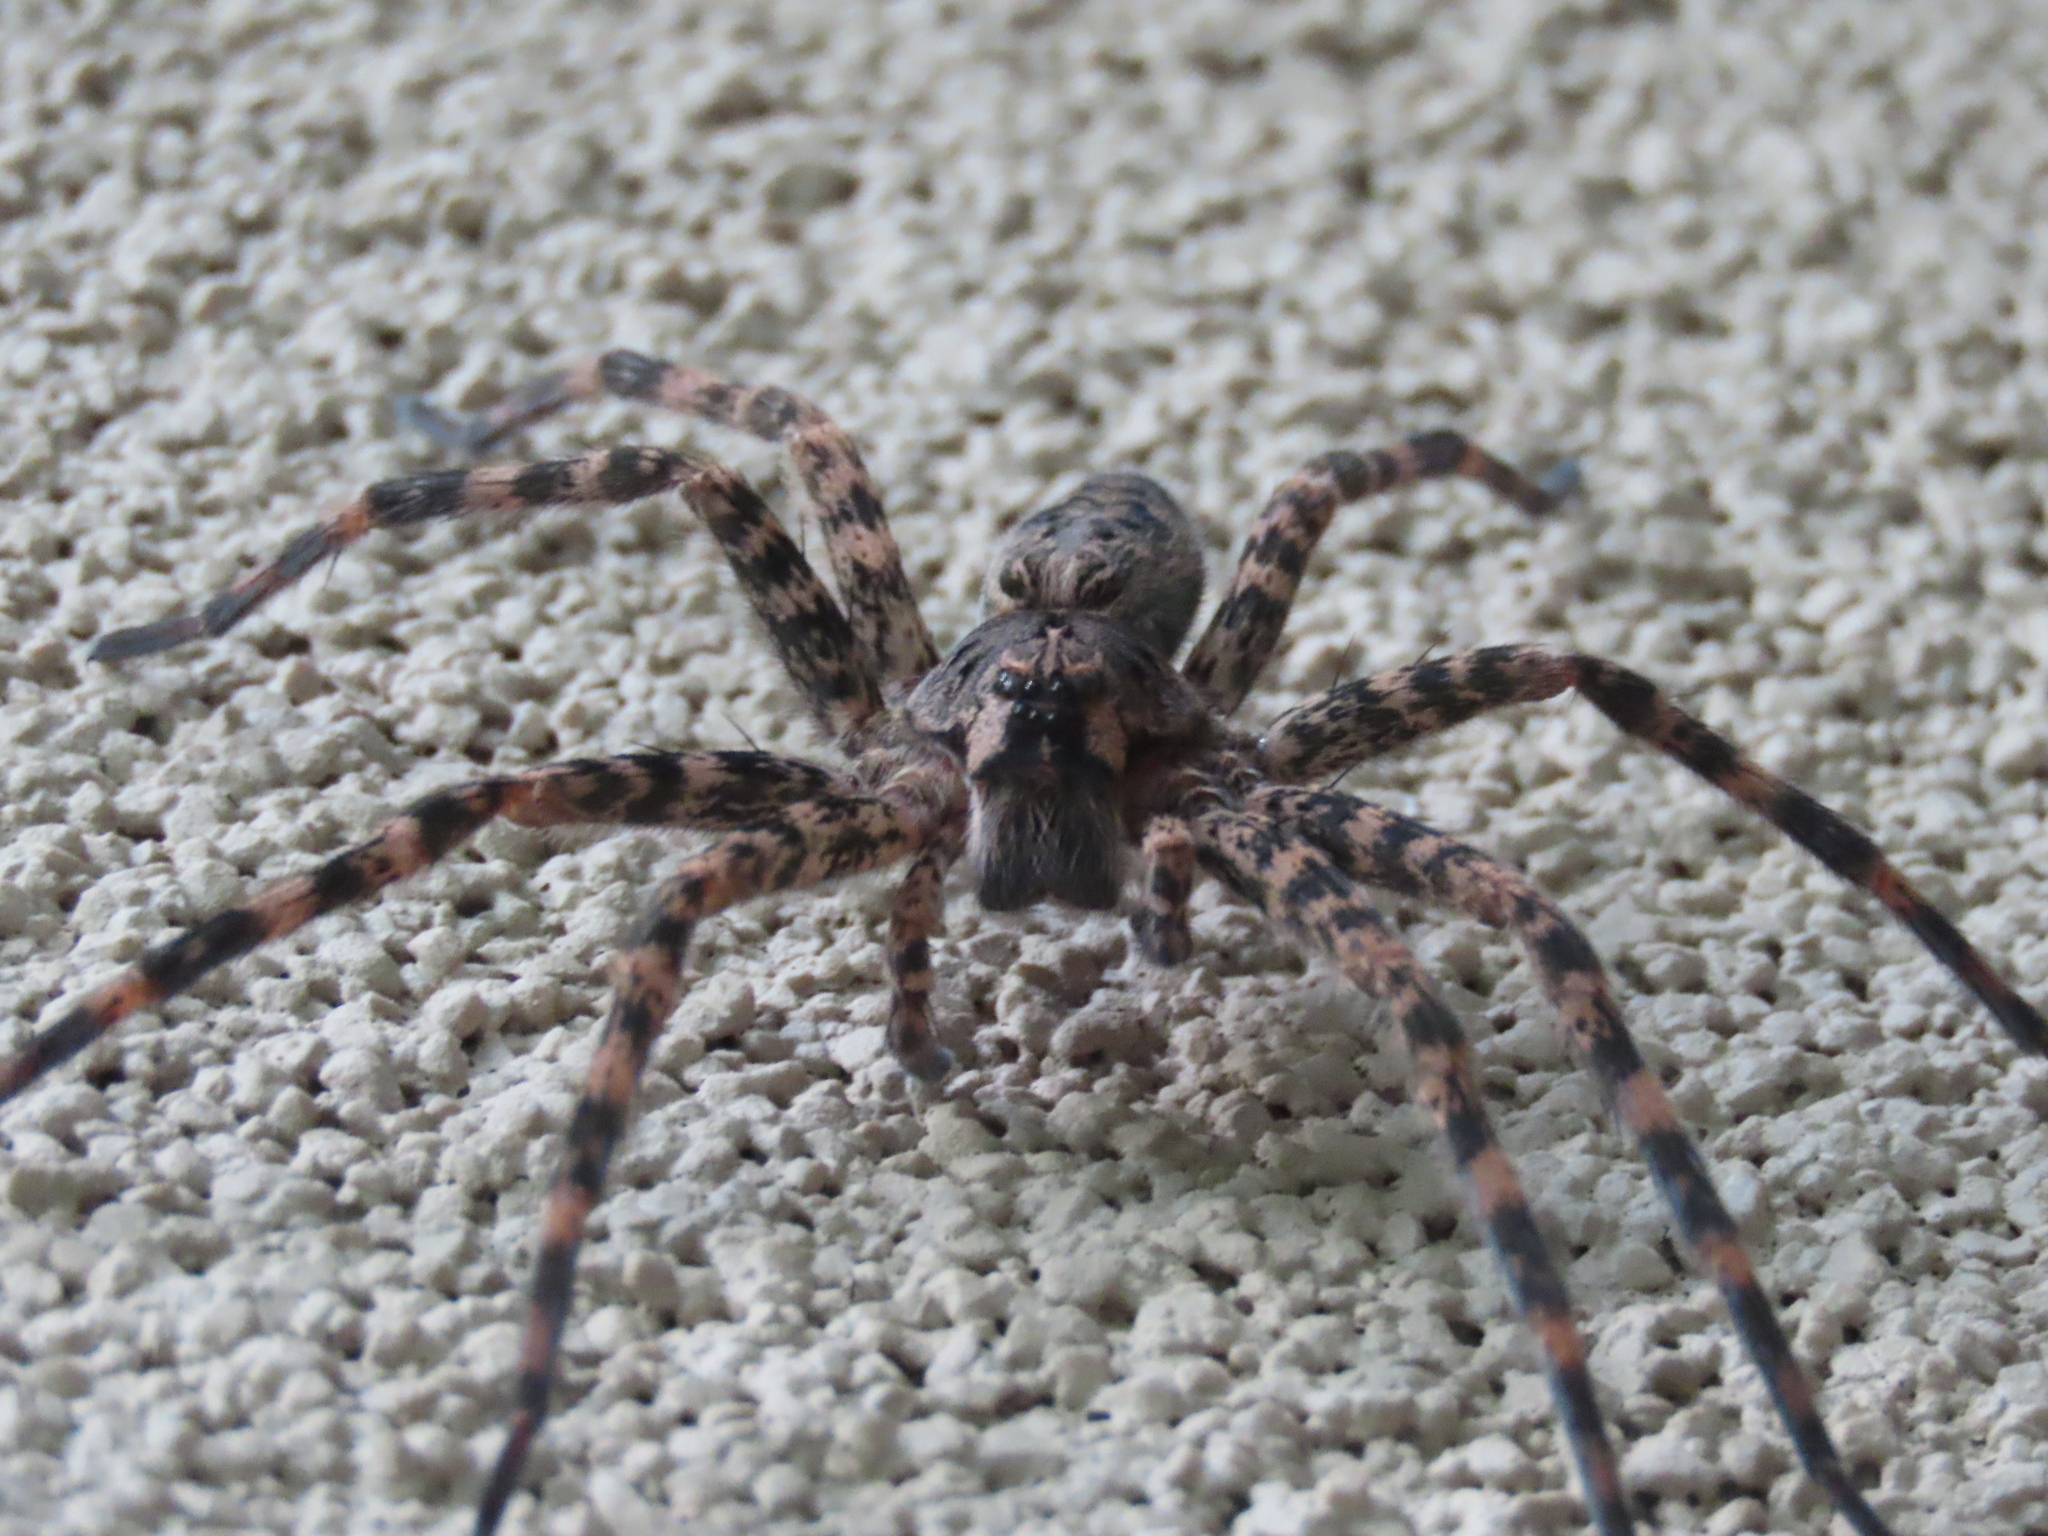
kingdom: Animalia
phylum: Arthropoda
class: Arachnida
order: Araneae
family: Pisauridae
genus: Dolomedes
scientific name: Dolomedes tenebrosus
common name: Dark fishing spider
